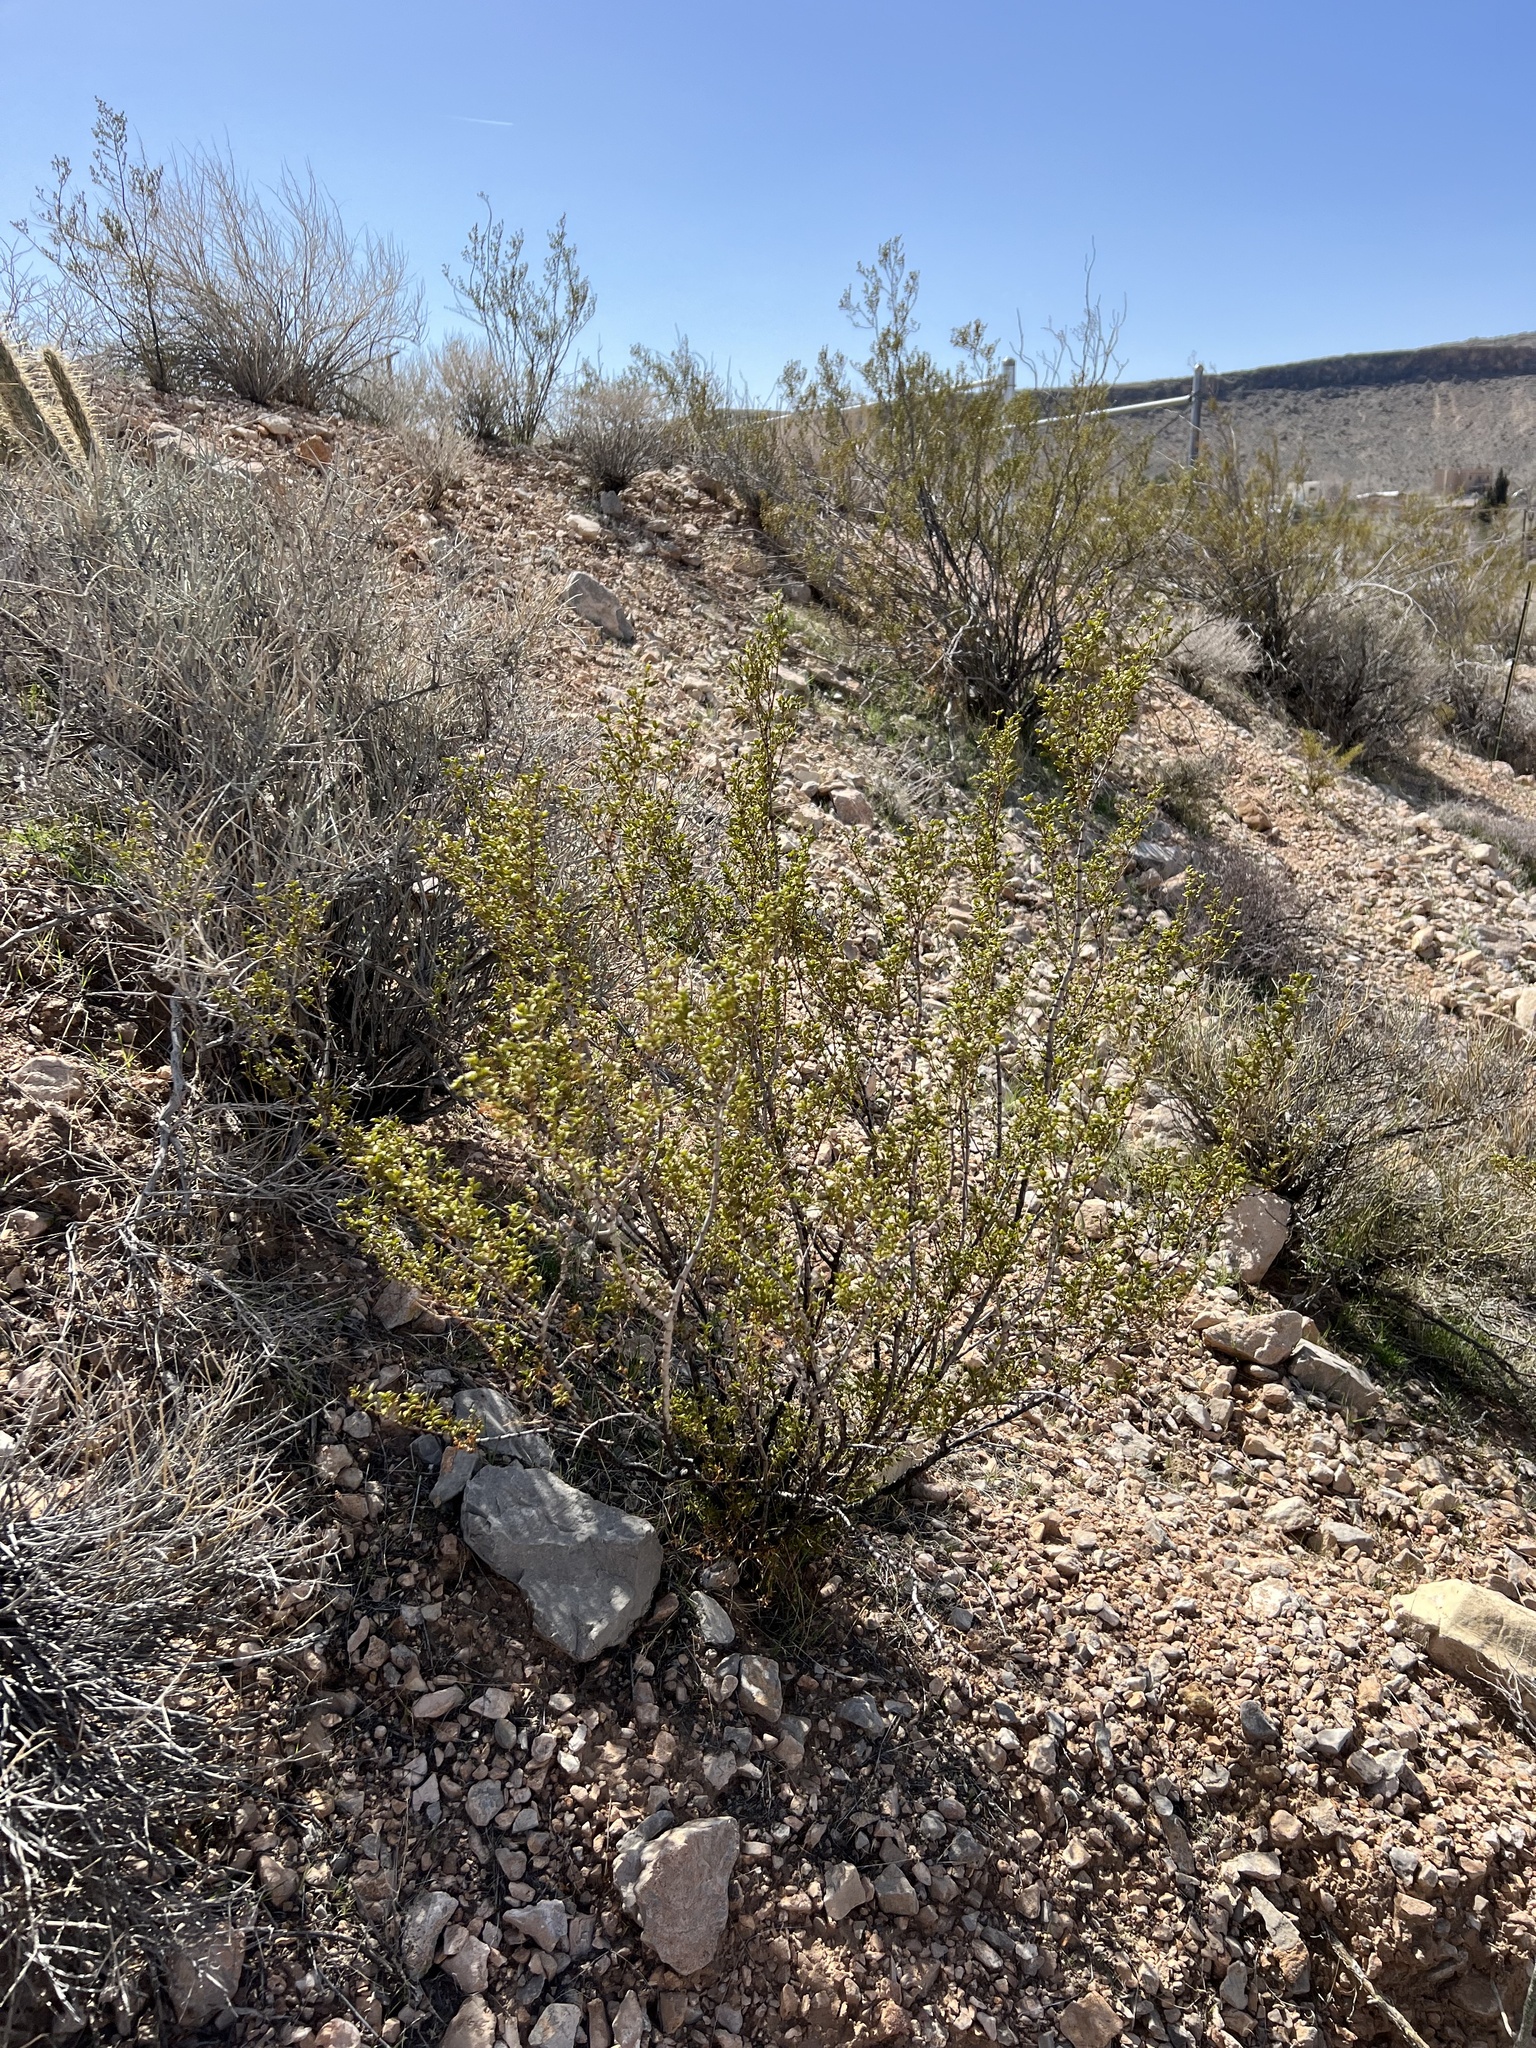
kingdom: Plantae
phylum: Tracheophyta
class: Magnoliopsida
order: Zygophyllales
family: Zygophyllaceae
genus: Larrea
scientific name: Larrea tridentata
